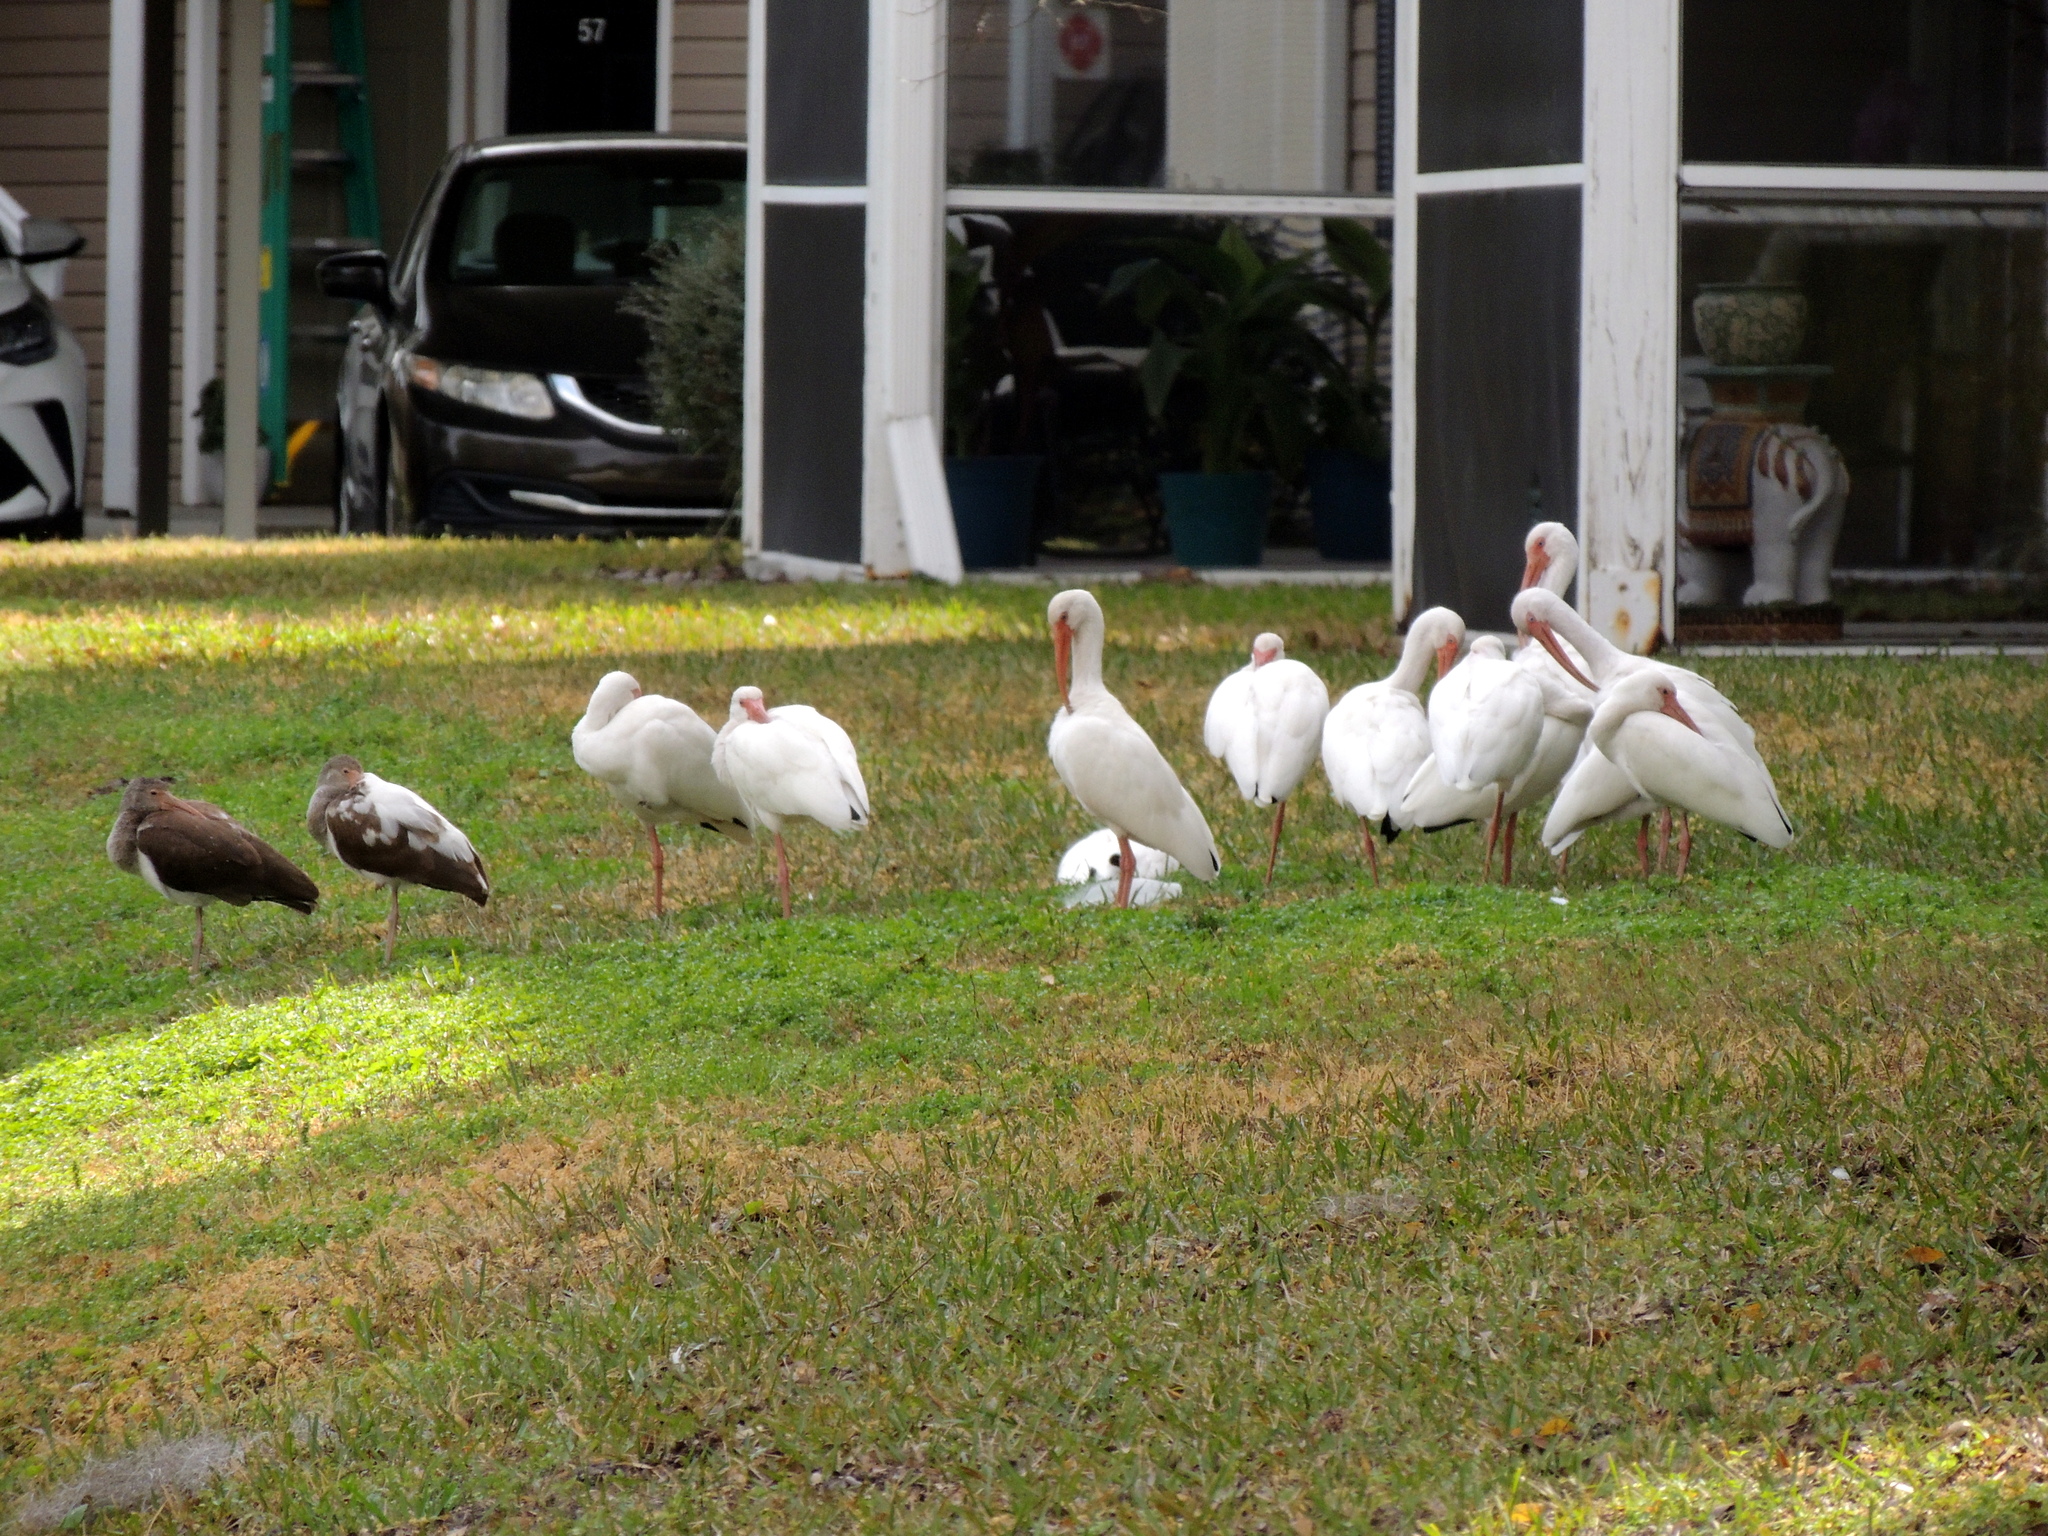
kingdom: Animalia
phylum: Chordata
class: Aves
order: Pelecaniformes
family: Threskiornithidae
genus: Eudocimus
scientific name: Eudocimus albus
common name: White ibis
